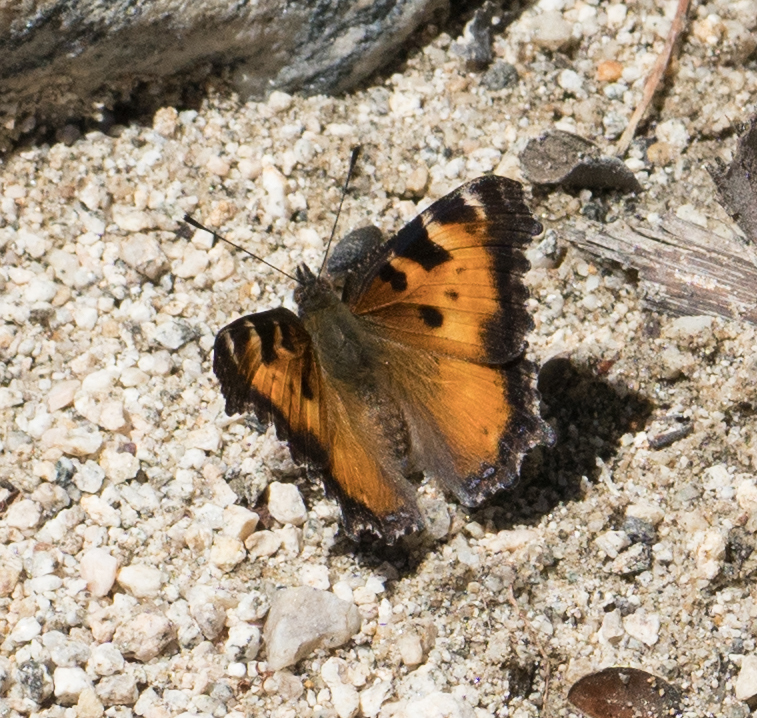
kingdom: Animalia
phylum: Arthropoda
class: Insecta
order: Lepidoptera
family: Nymphalidae
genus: Nymphalis
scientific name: Nymphalis californica
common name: California tortoiseshell
